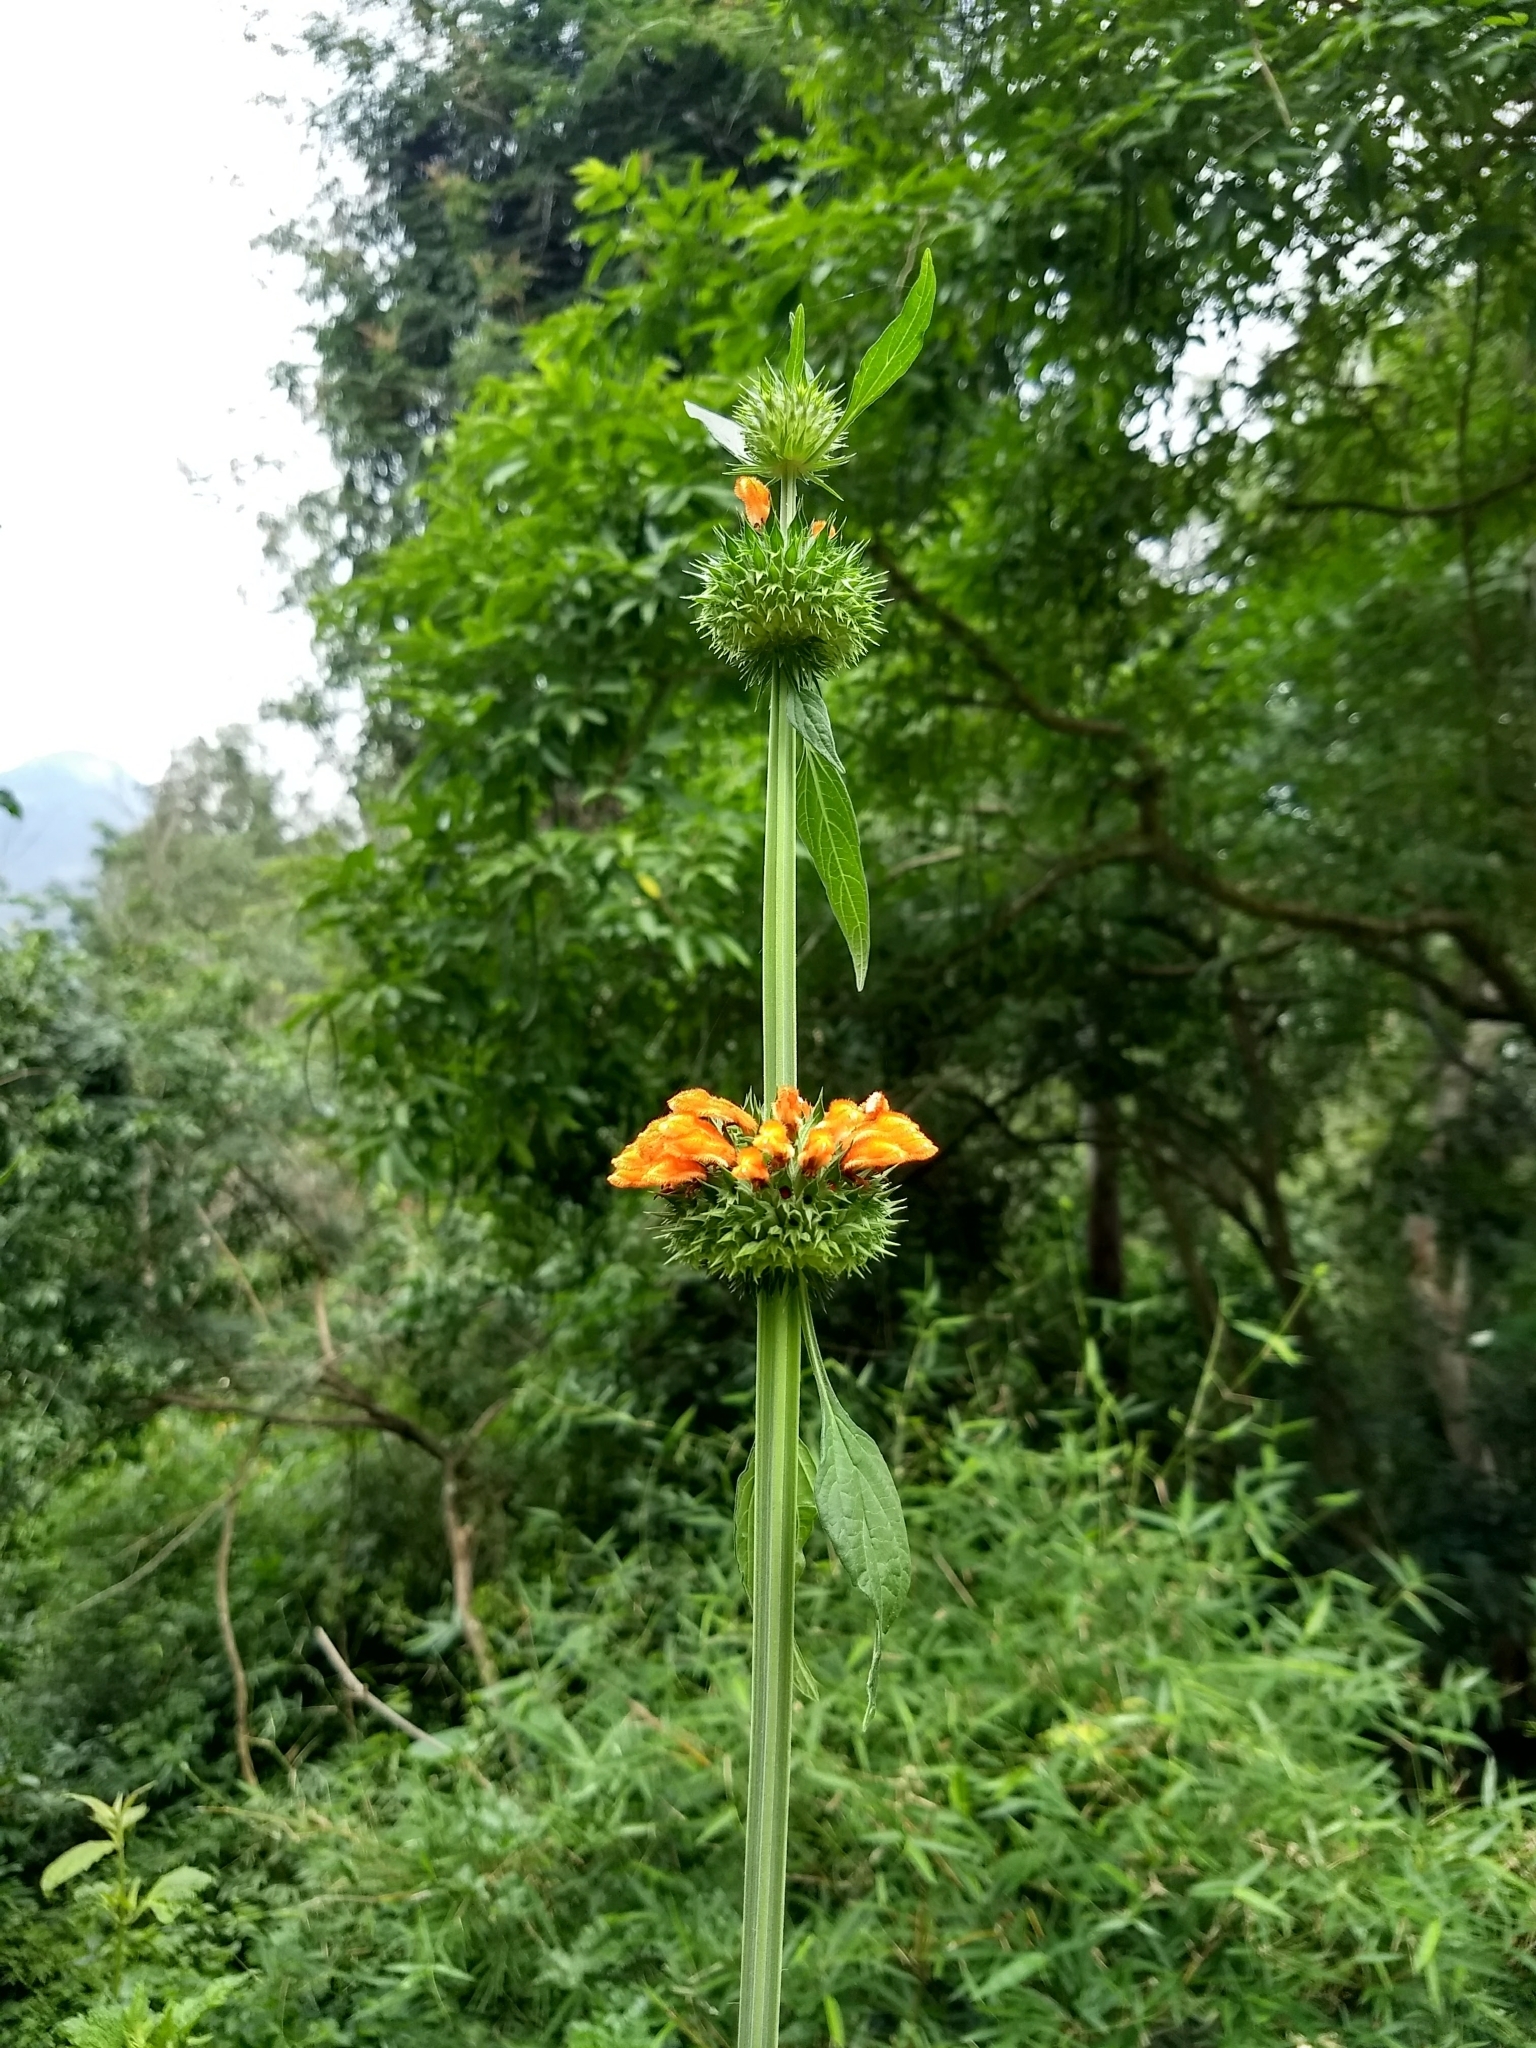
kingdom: Plantae
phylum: Tracheophyta
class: Magnoliopsida
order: Lamiales
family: Lamiaceae
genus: Leonotis
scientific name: Leonotis nepetifolia
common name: Christmas candlestick
